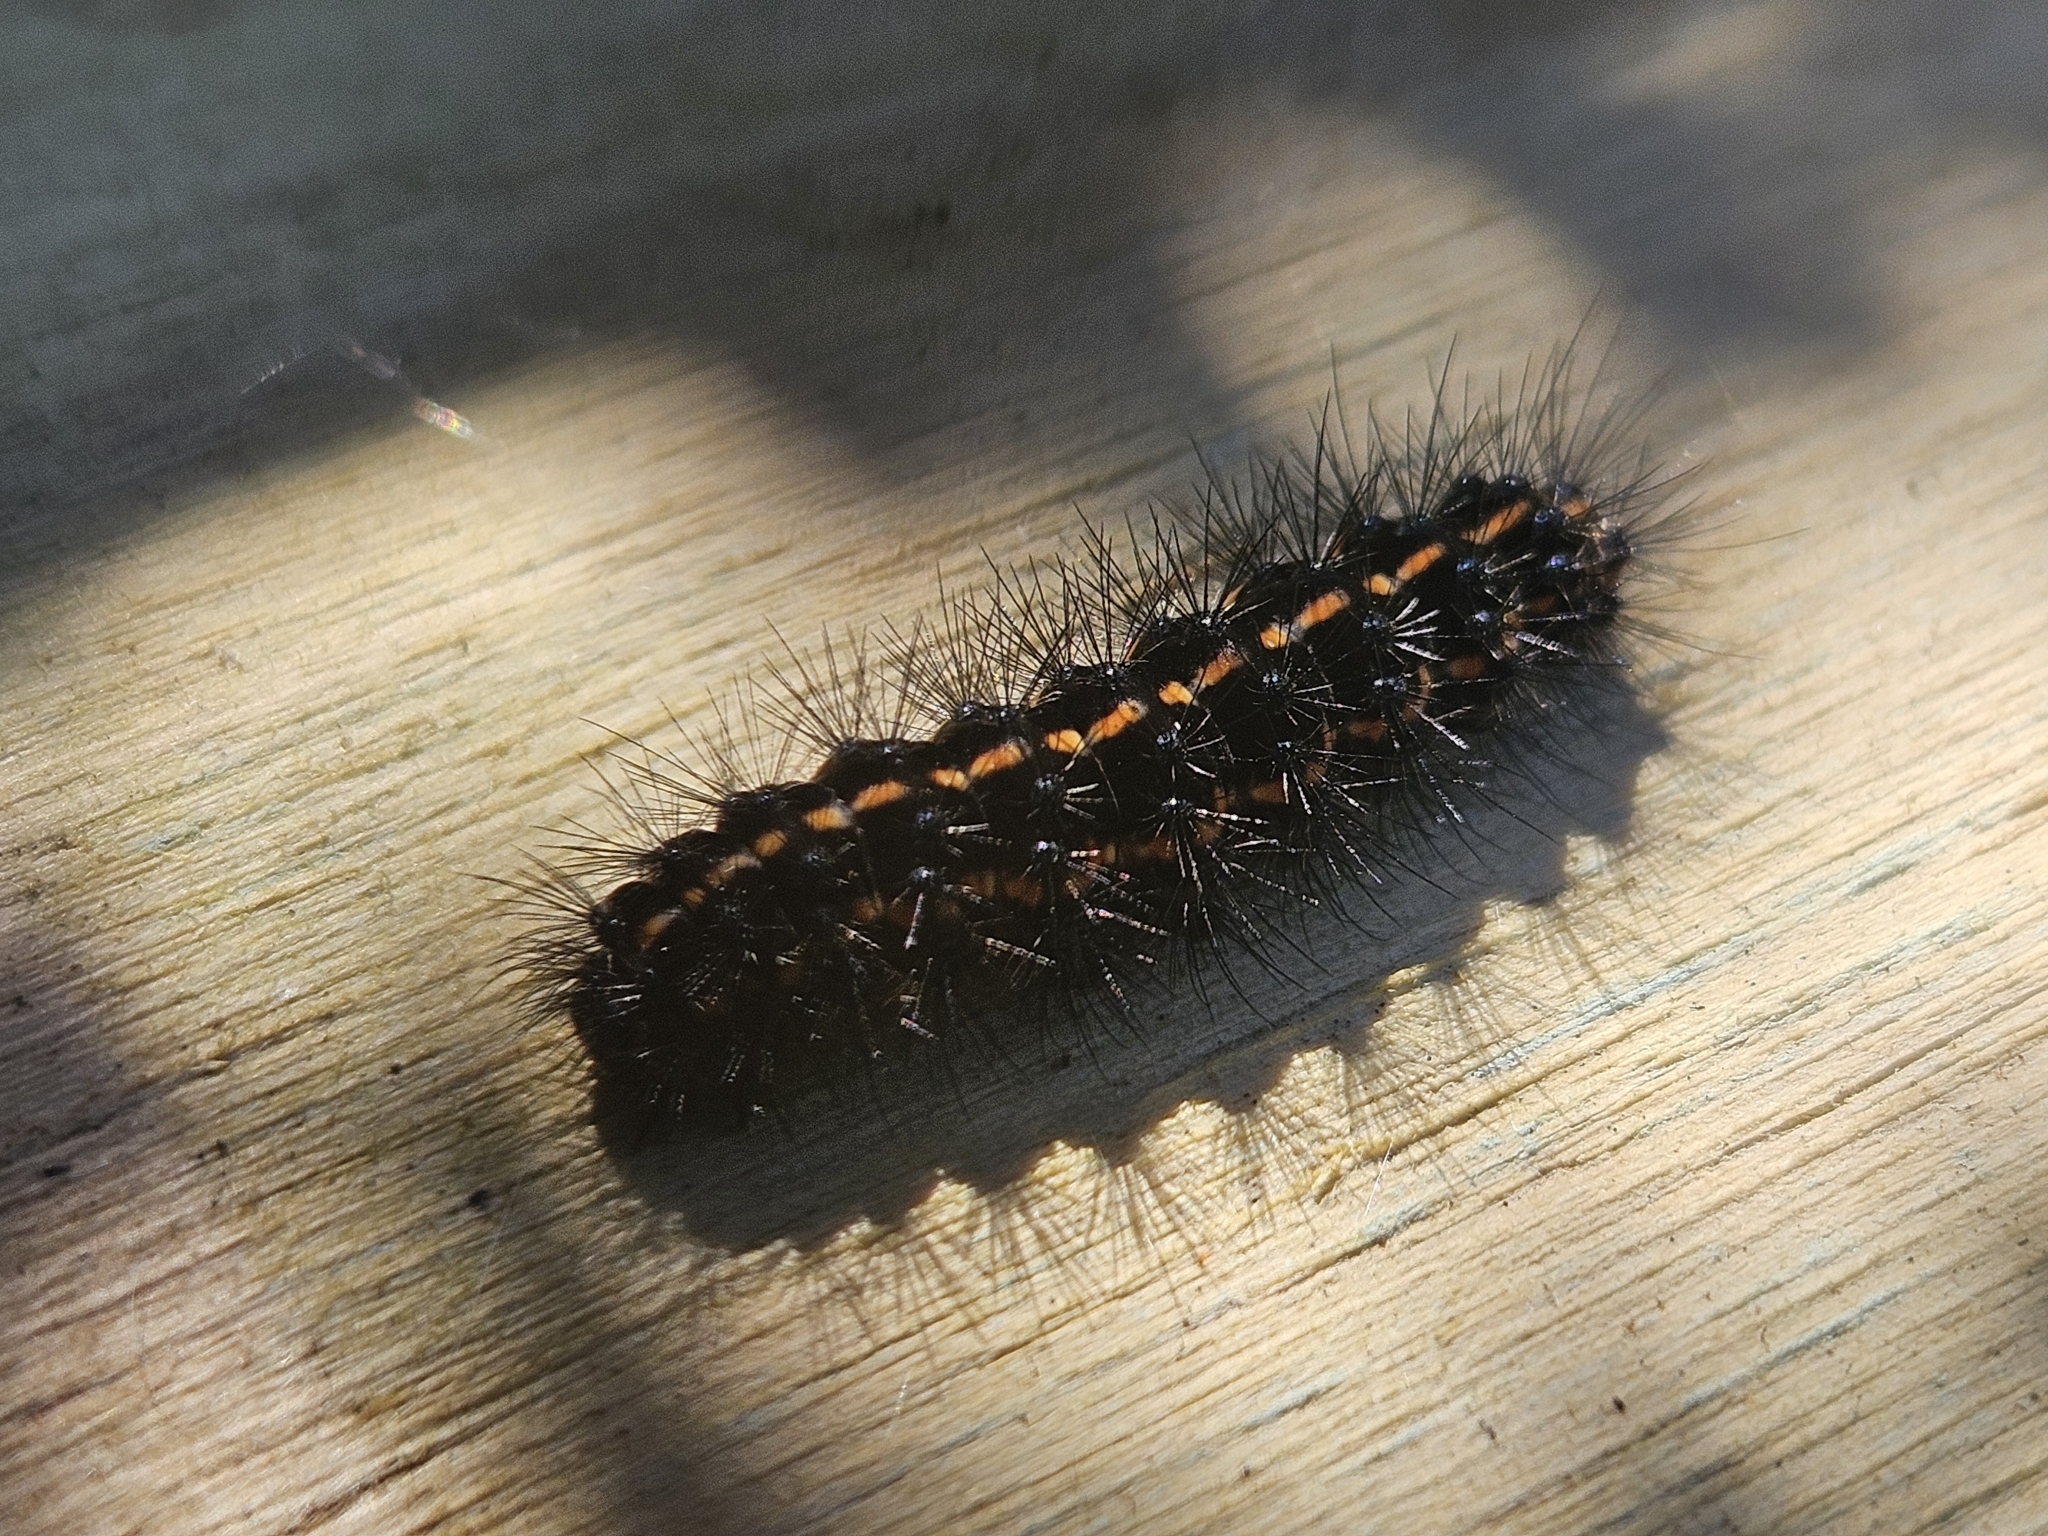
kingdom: Animalia
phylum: Arthropoda
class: Insecta
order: Lepidoptera
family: Erebidae
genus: Nyctemera
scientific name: Nyctemera annulatum
